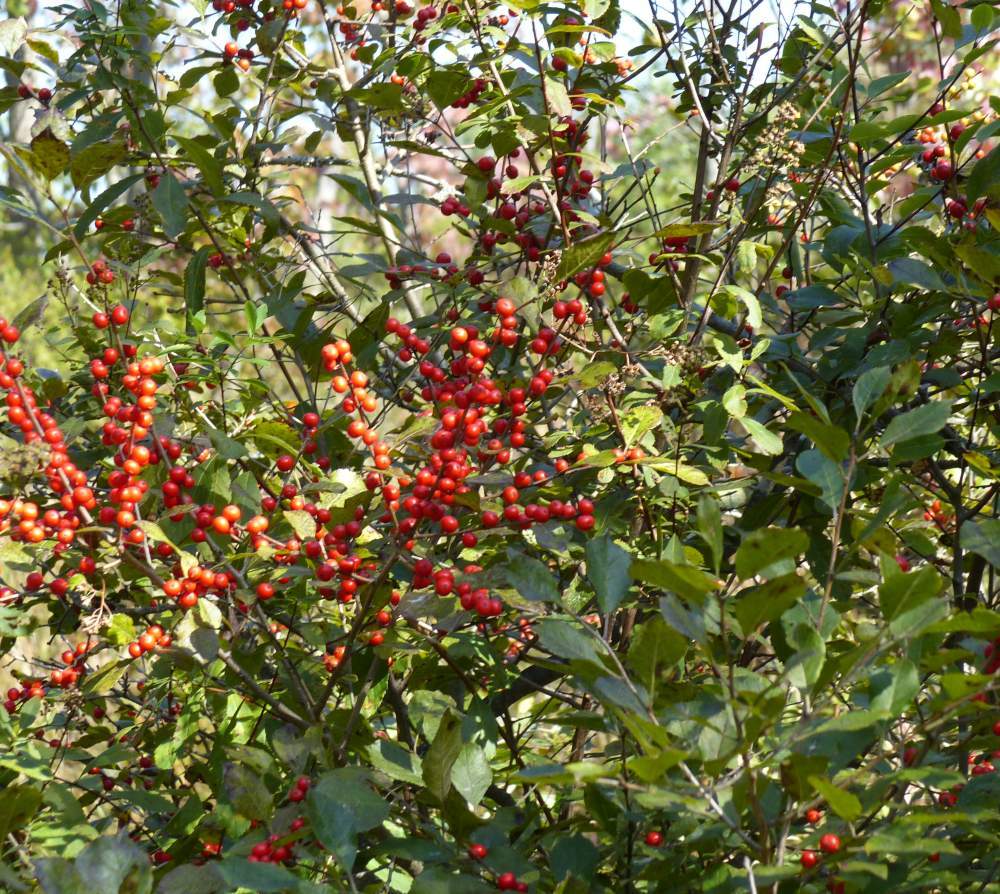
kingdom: Plantae
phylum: Tracheophyta
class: Magnoliopsida
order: Aquifoliales
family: Aquifoliaceae
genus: Ilex
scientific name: Ilex verticillata
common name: Virginia winterberry
